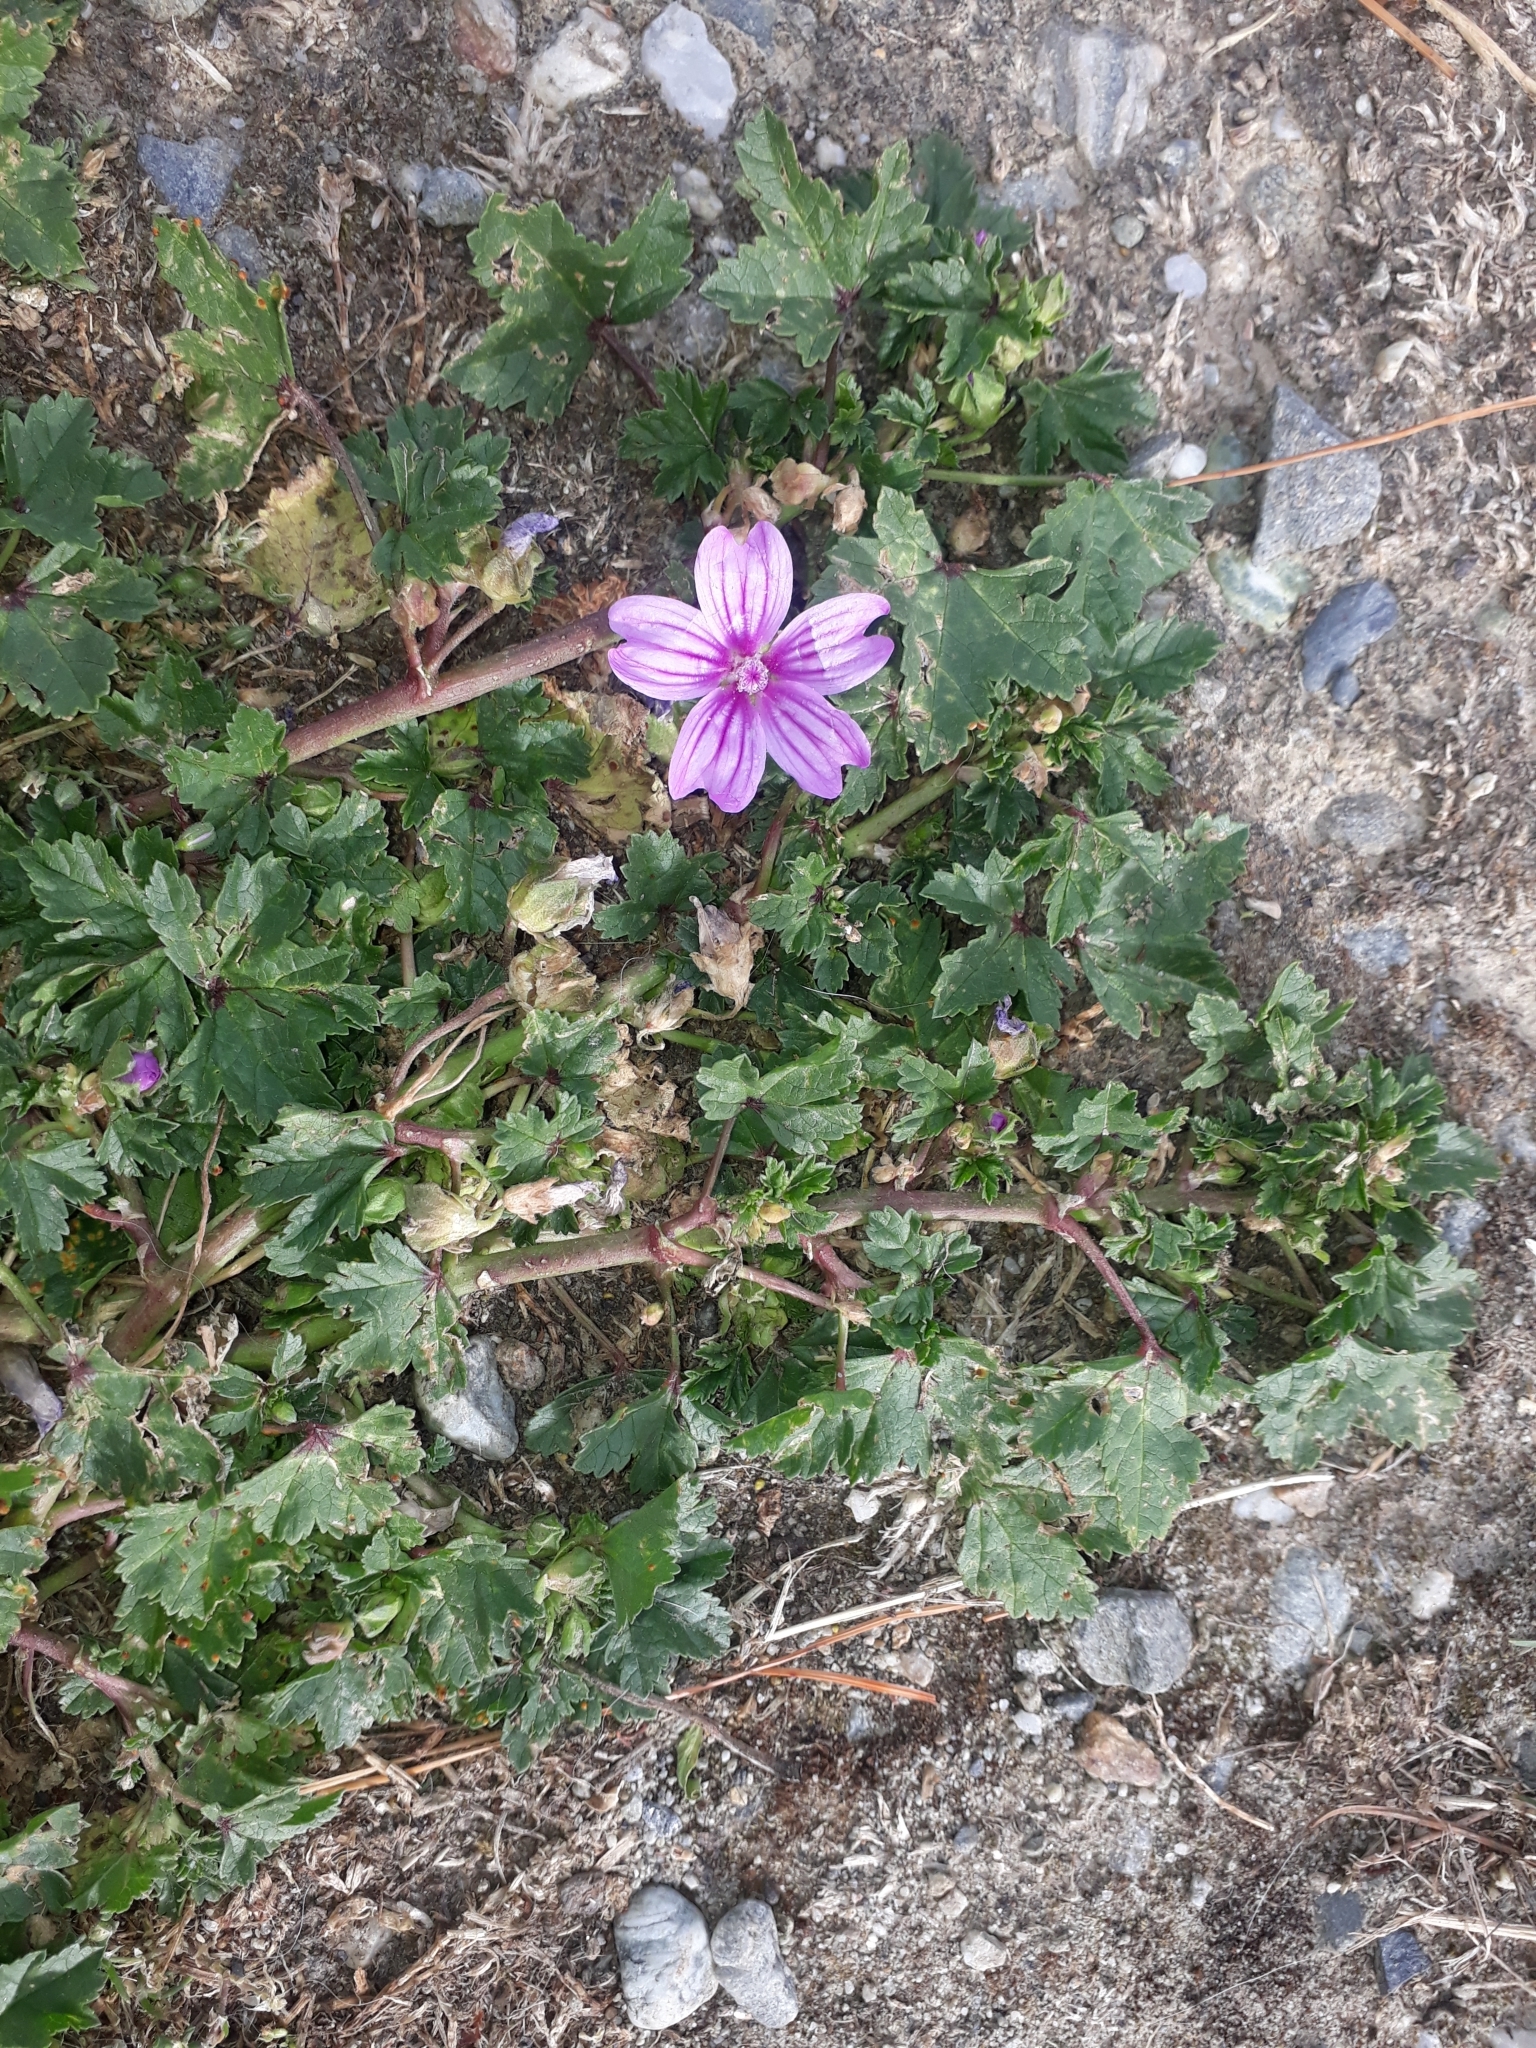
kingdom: Plantae
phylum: Tracheophyta
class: Magnoliopsida
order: Malvales
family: Malvaceae
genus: Malva
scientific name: Malva sylvestris
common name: Common mallow
